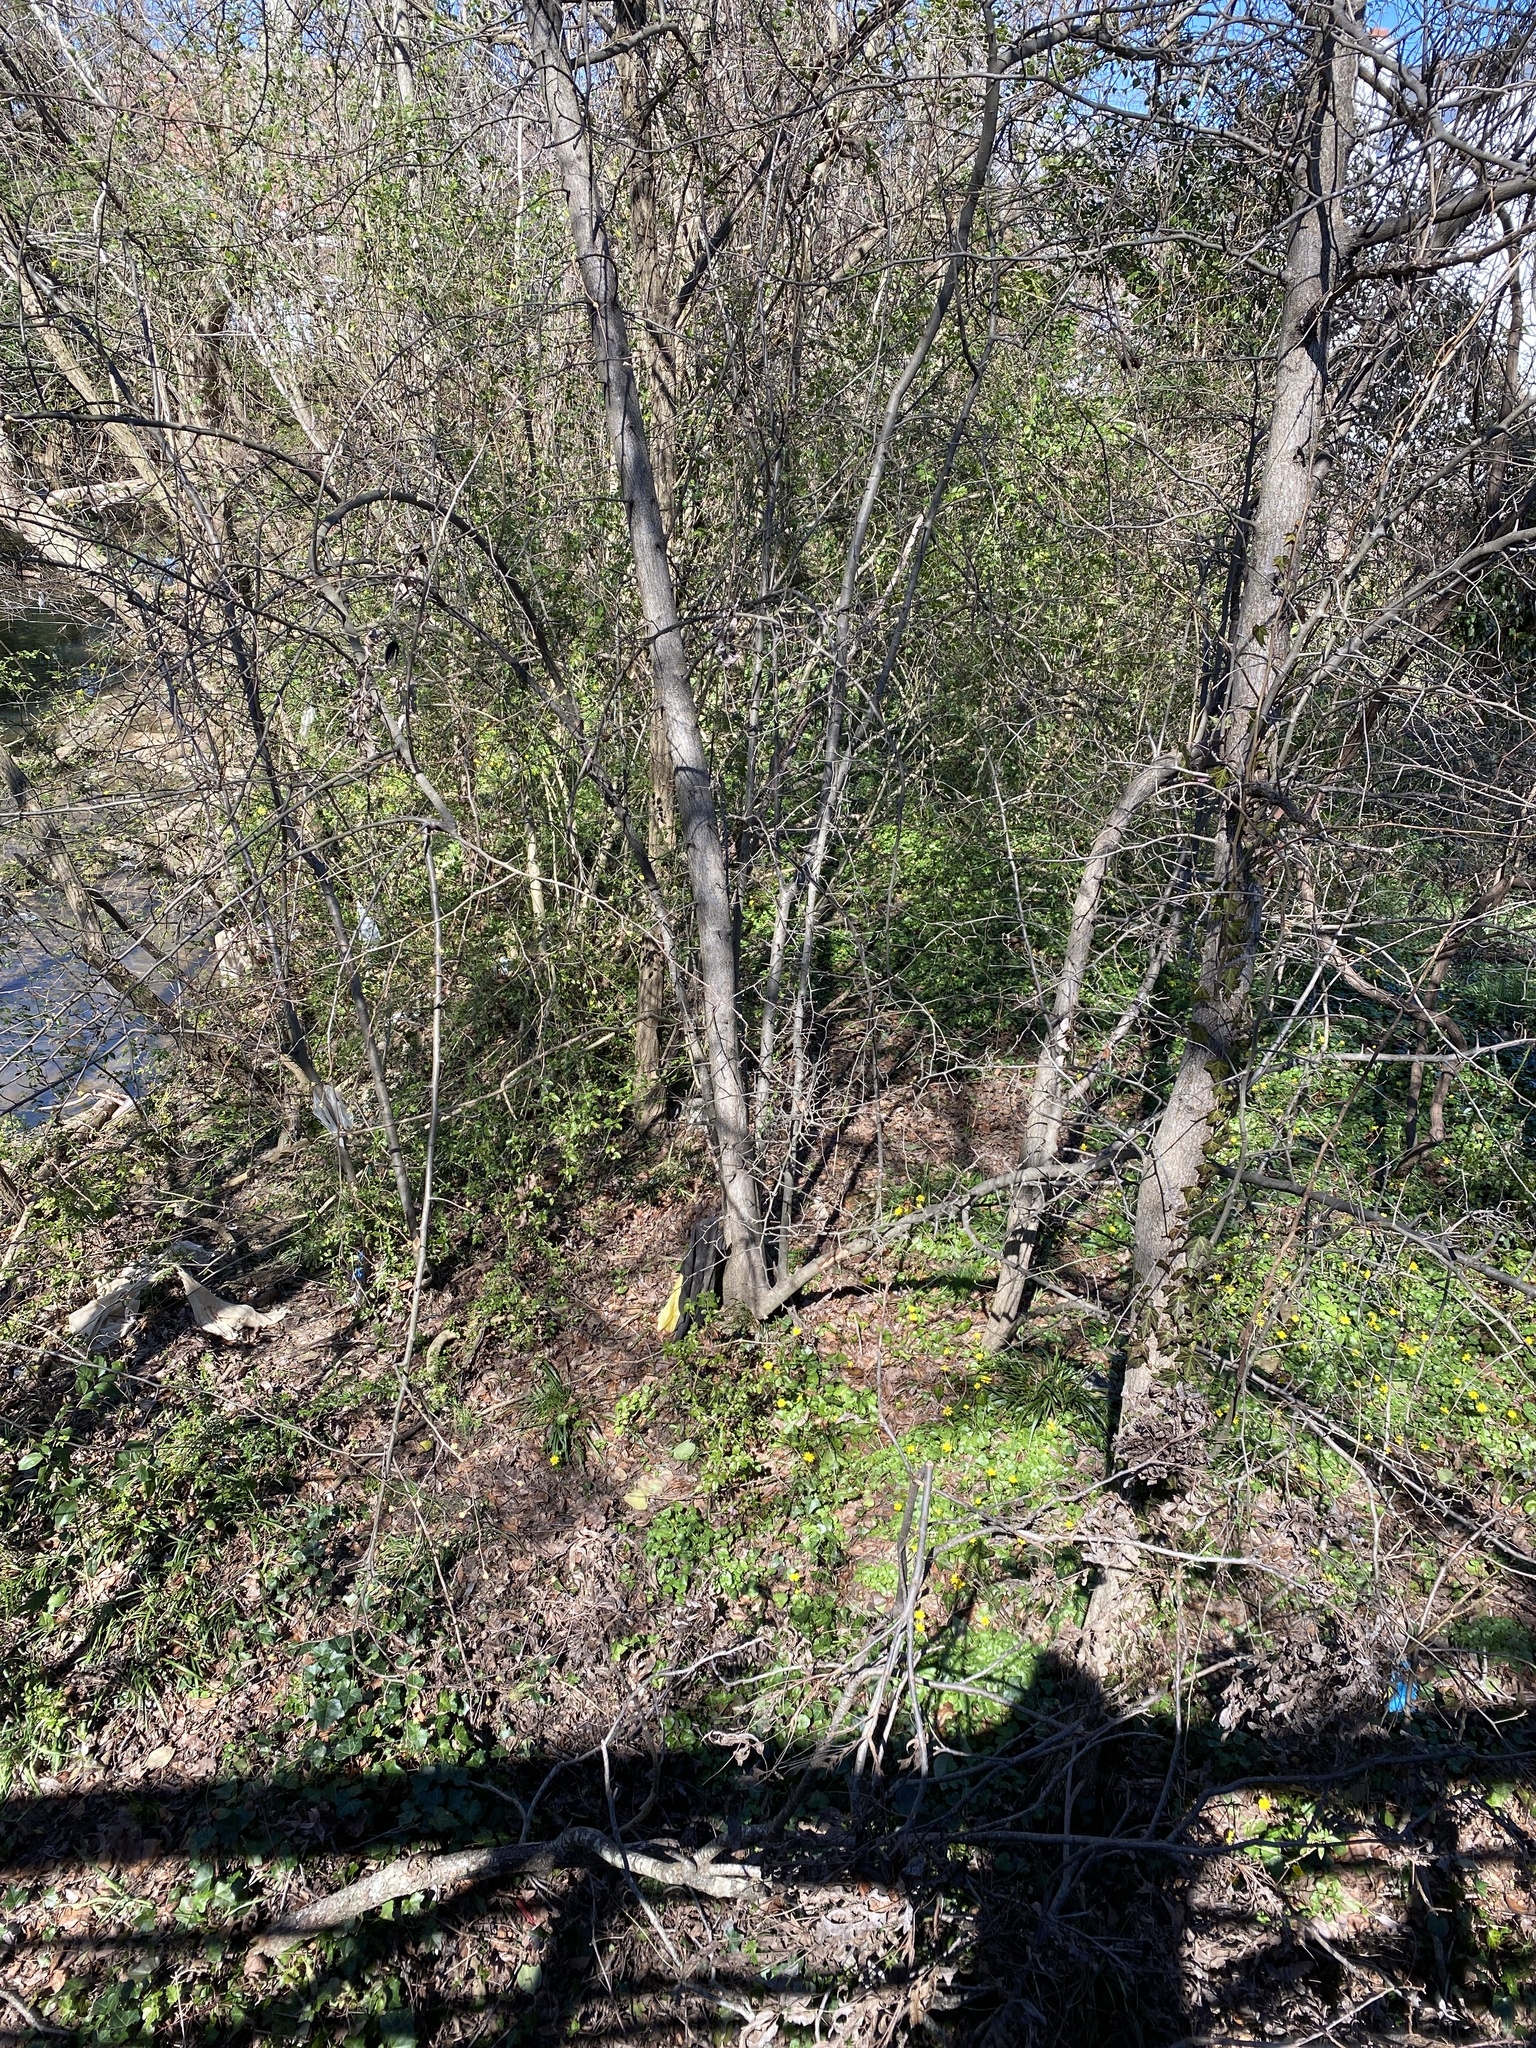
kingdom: Plantae
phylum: Tracheophyta
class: Magnoliopsida
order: Ranunculales
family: Ranunculaceae
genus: Ficaria
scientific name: Ficaria verna
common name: Lesser celandine
